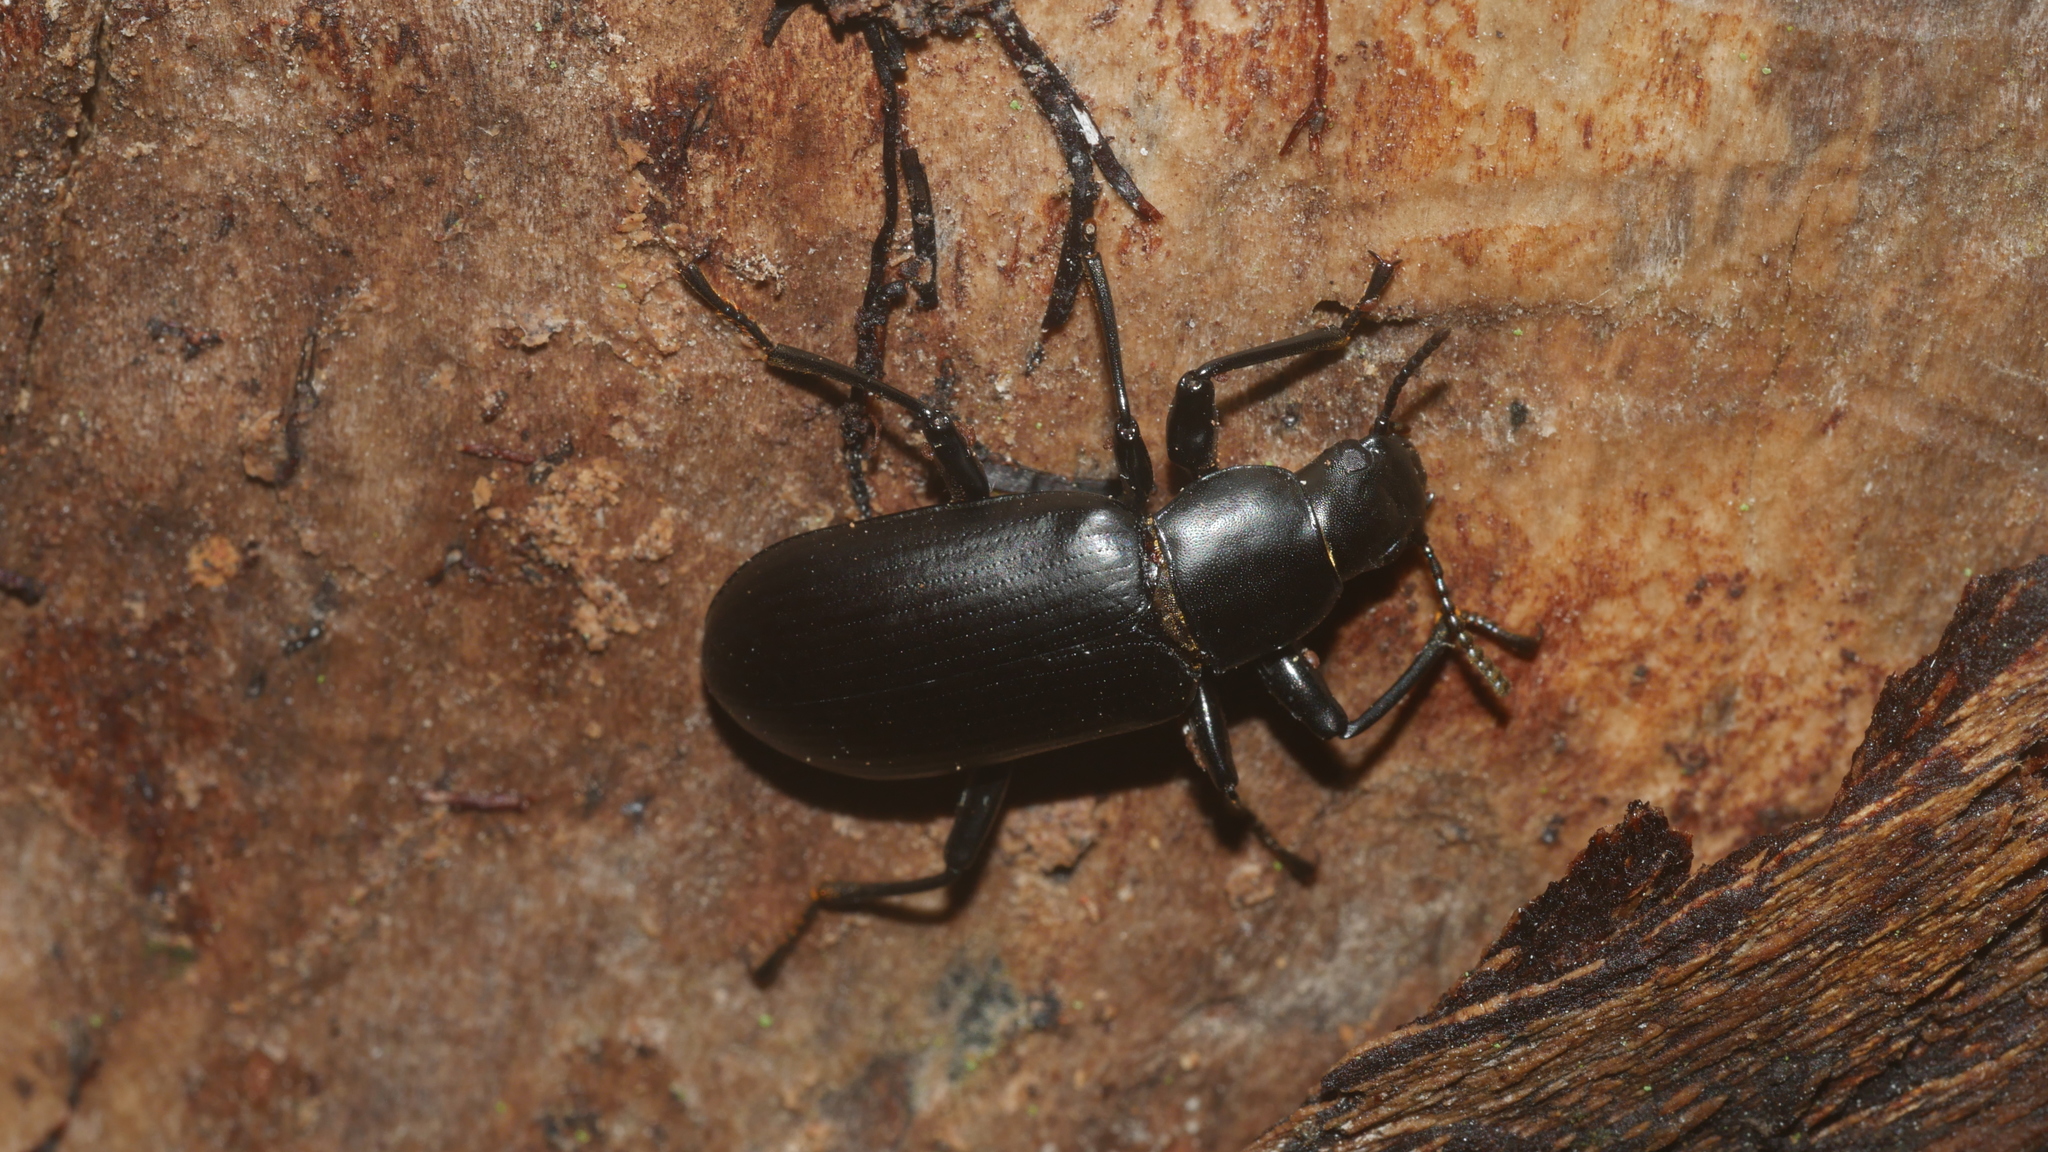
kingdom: Animalia
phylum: Arthropoda
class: Insecta
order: Coleoptera
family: Tenebrionidae
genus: Alobates
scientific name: Alobates
